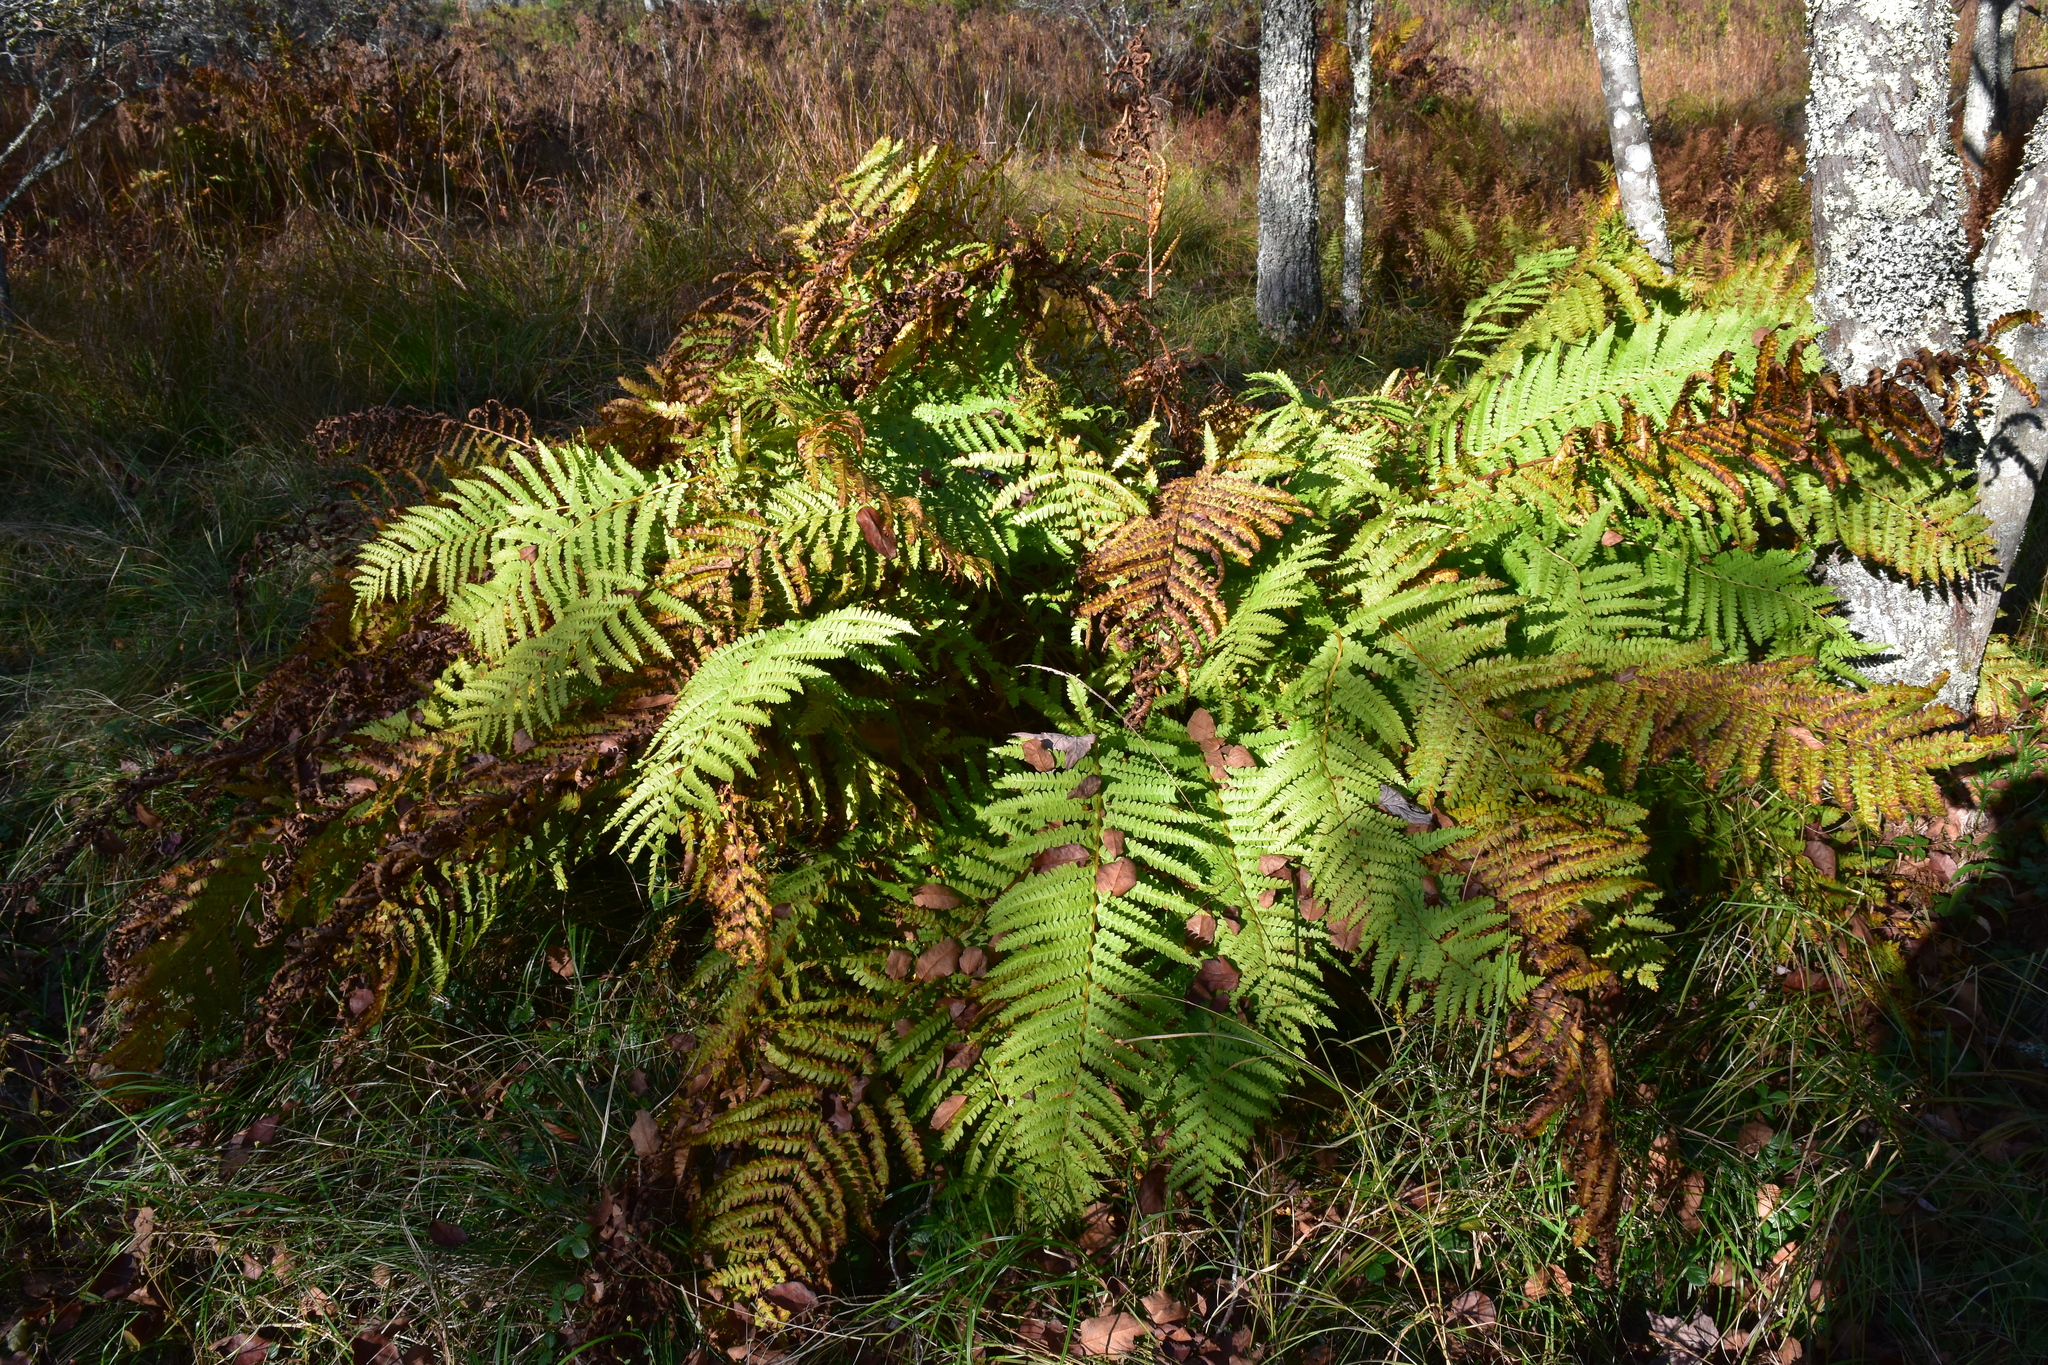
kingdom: Plantae
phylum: Tracheophyta
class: Polypodiopsida
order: Osmundales
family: Osmundaceae
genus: Osmundastrum
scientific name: Osmundastrum cinnamomeum
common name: Cinnamon fern
